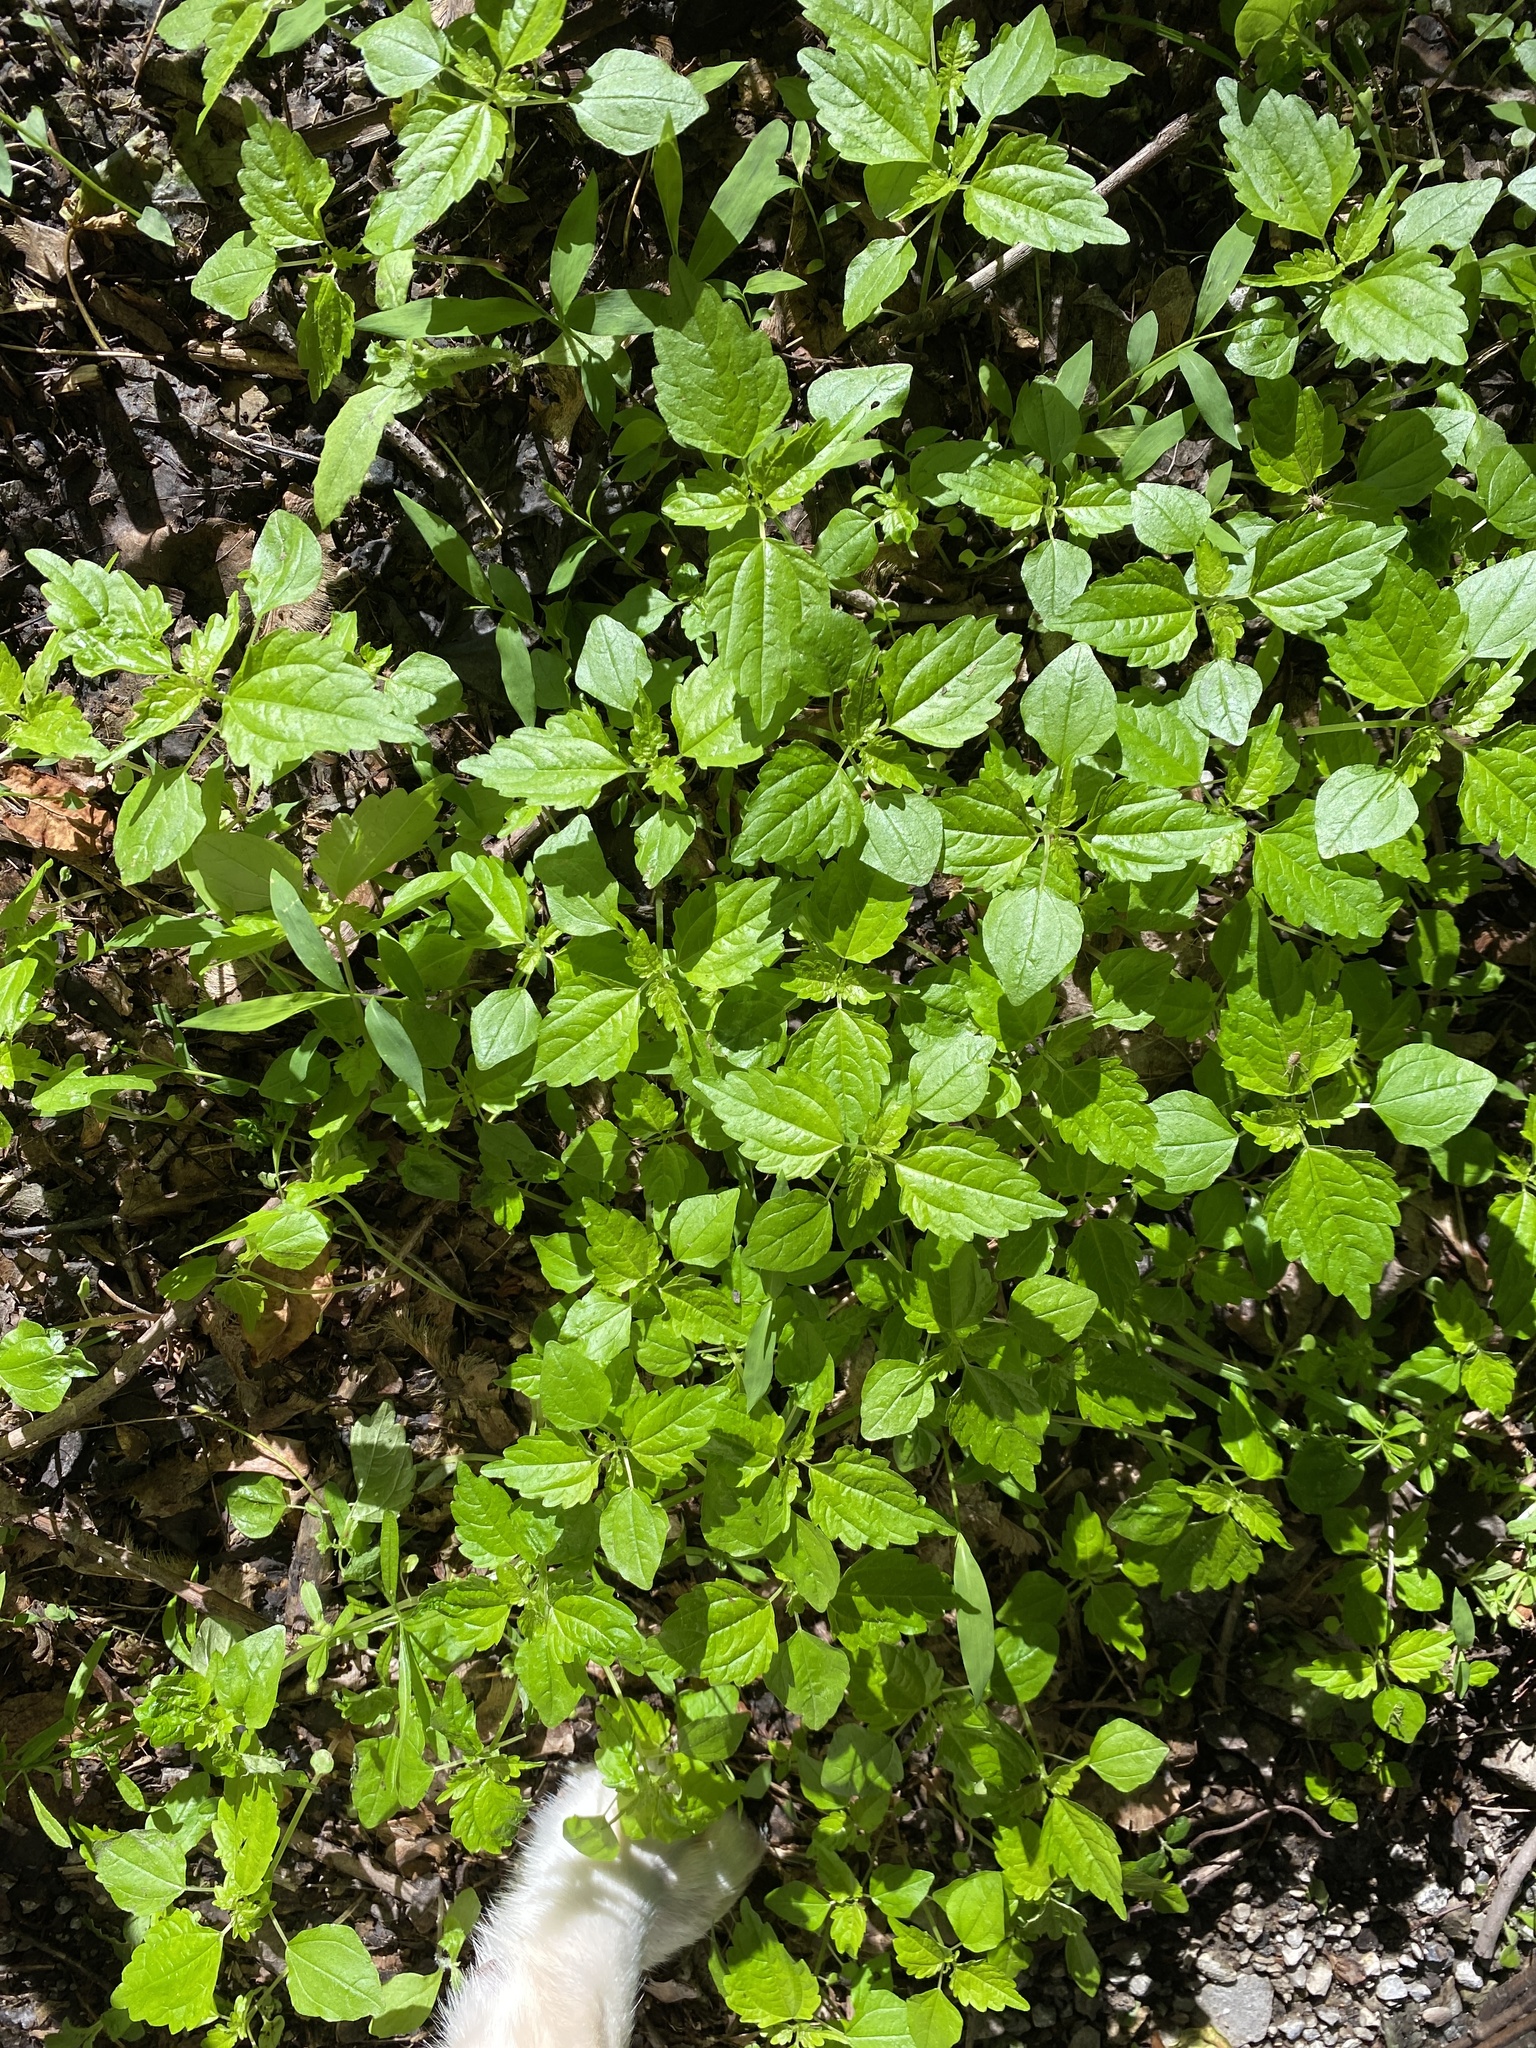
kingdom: Plantae
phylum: Tracheophyta
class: Magnoliopsida
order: Rosales
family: Urticaceae
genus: Pilea
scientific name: Pilea pumila
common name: Clearweed
